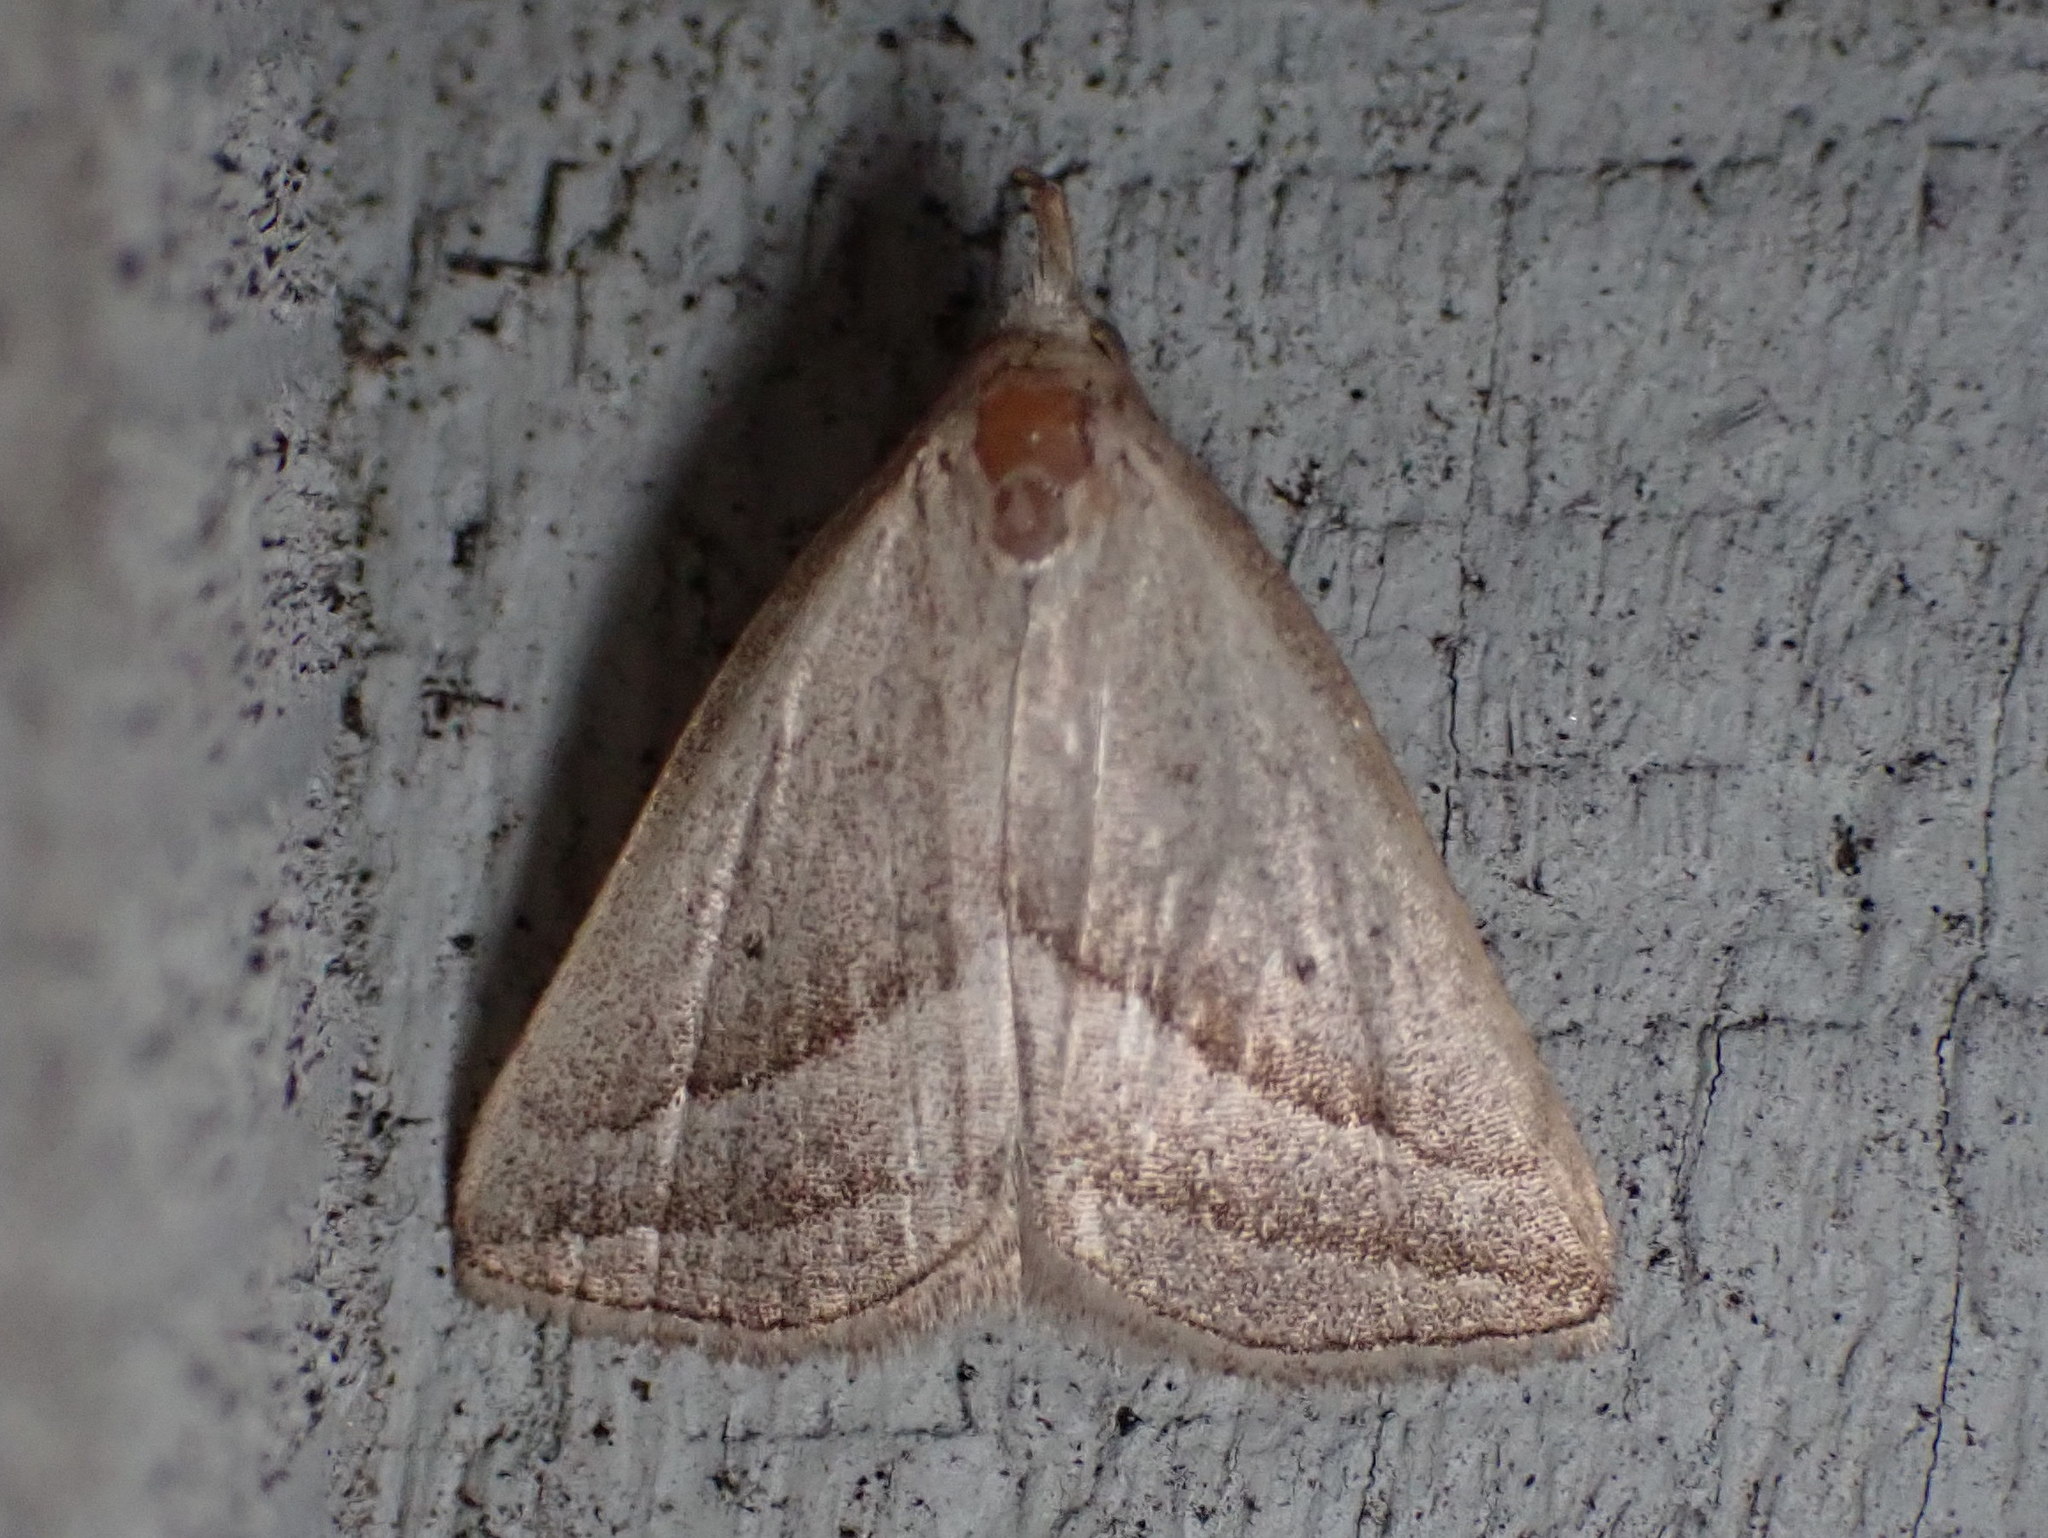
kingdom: Animalia
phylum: Arthropoda
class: Insecta
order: Lepidoptera
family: Erebidae
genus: Macrochilo
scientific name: Macrochilo absorptalis
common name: Slant-lined owlet
